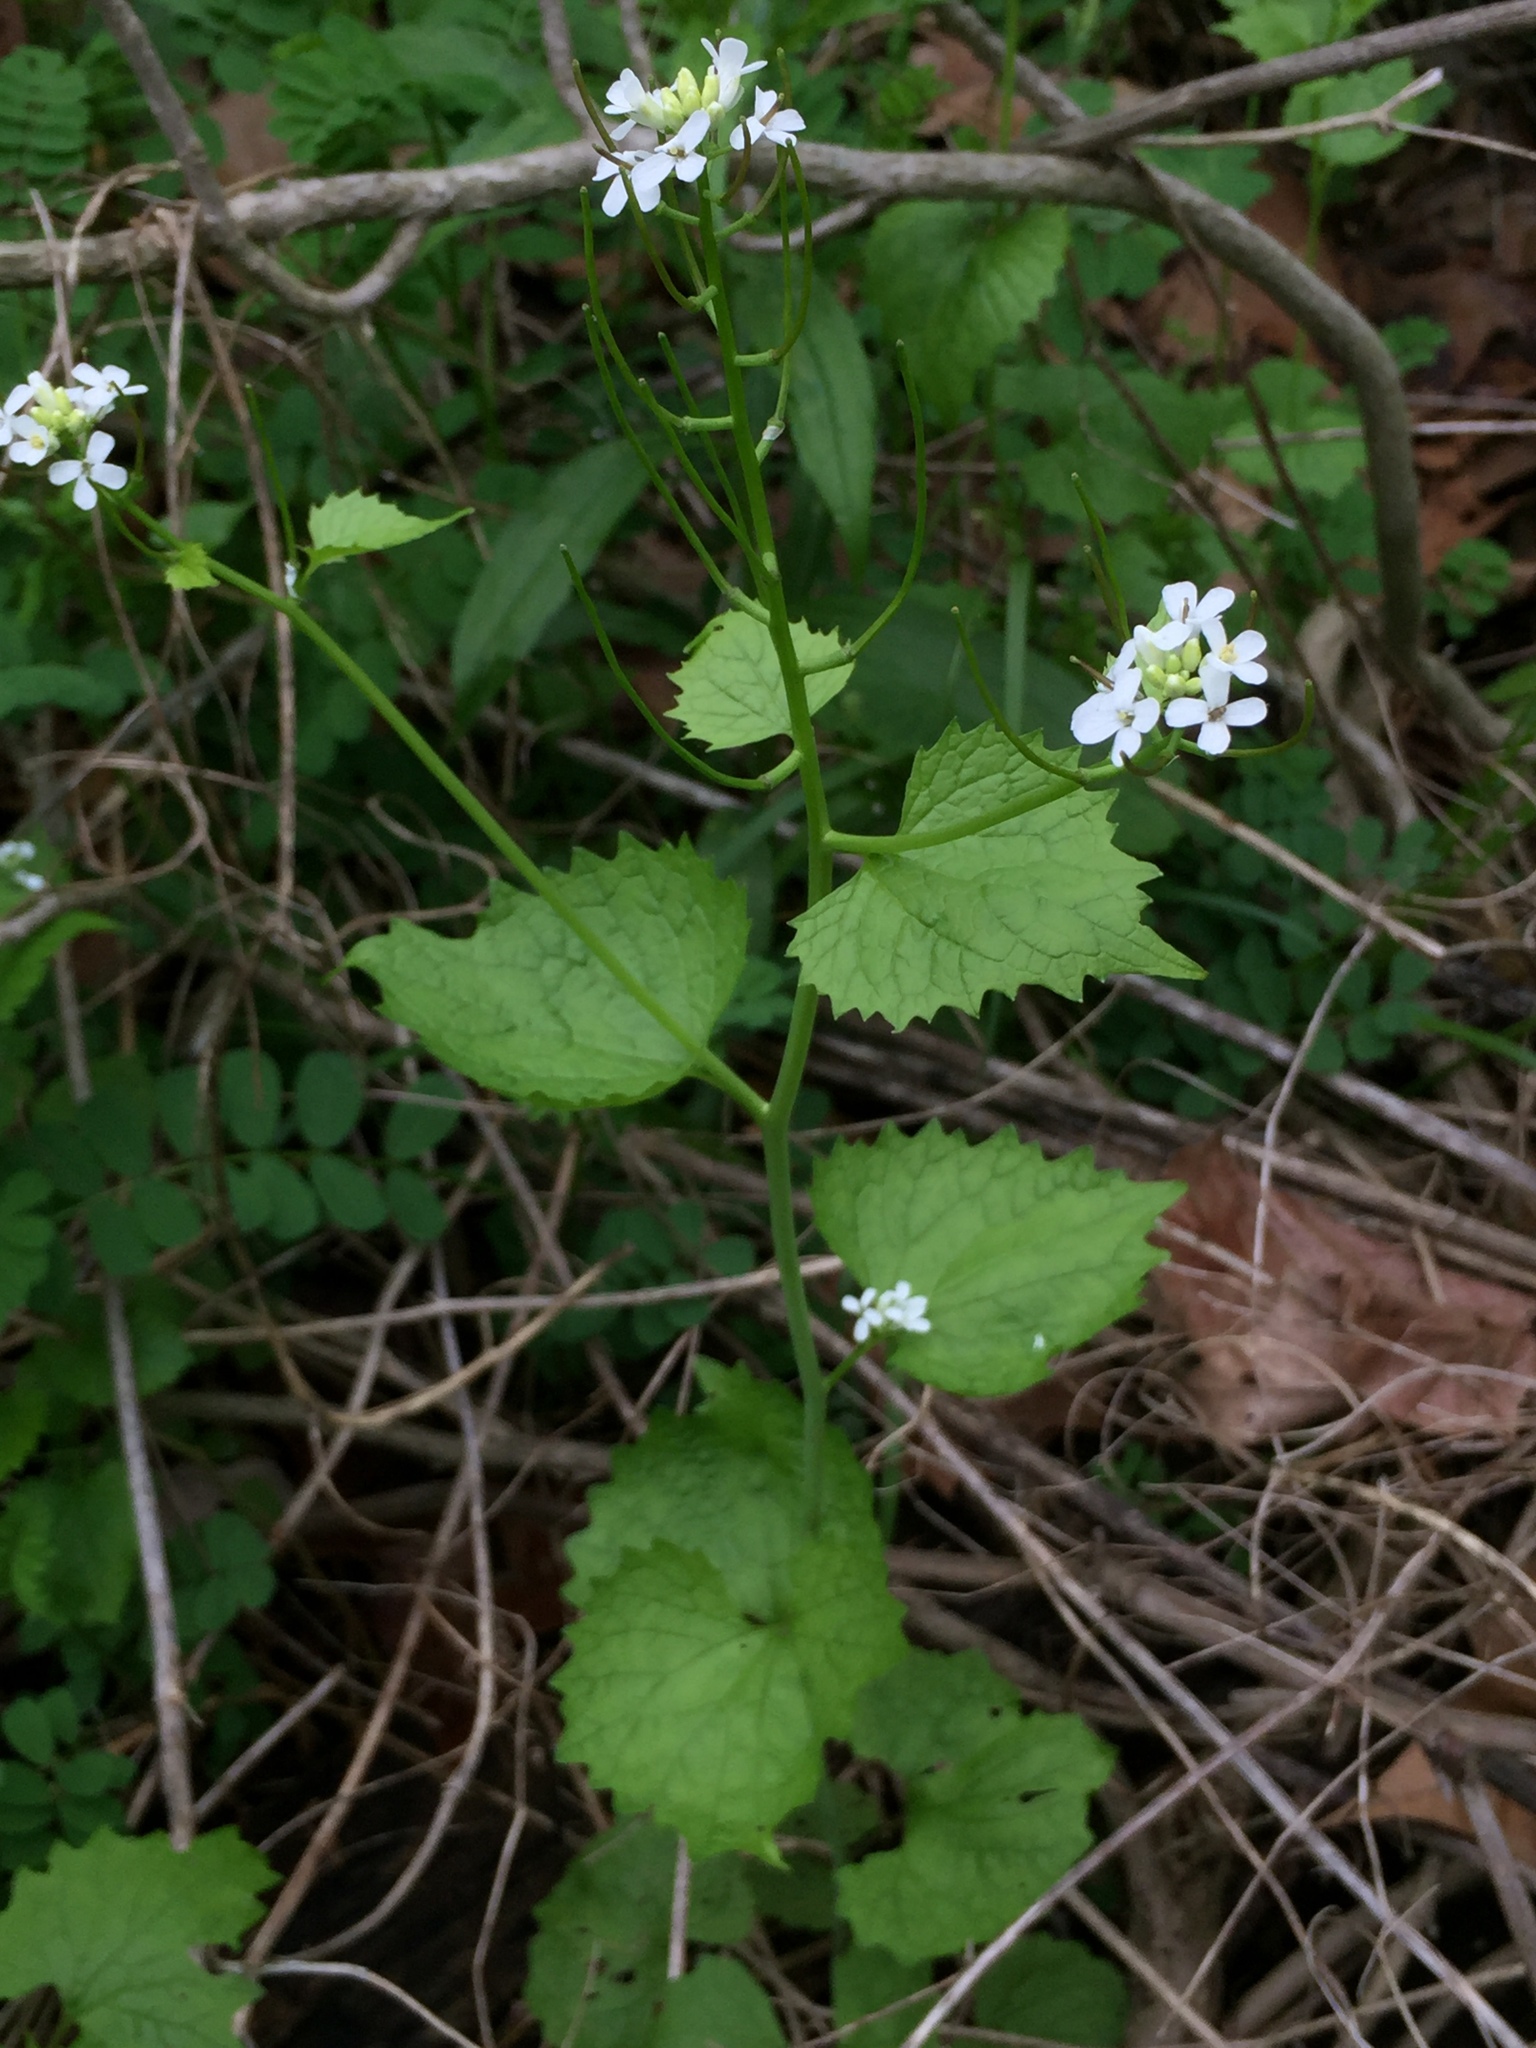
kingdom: Plantae
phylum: Tracheophyta
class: Magnoliopsida
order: Brassicales
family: Brassicaceae
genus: Alliaria
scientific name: Alliaria petiolata
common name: Garlic mustard
